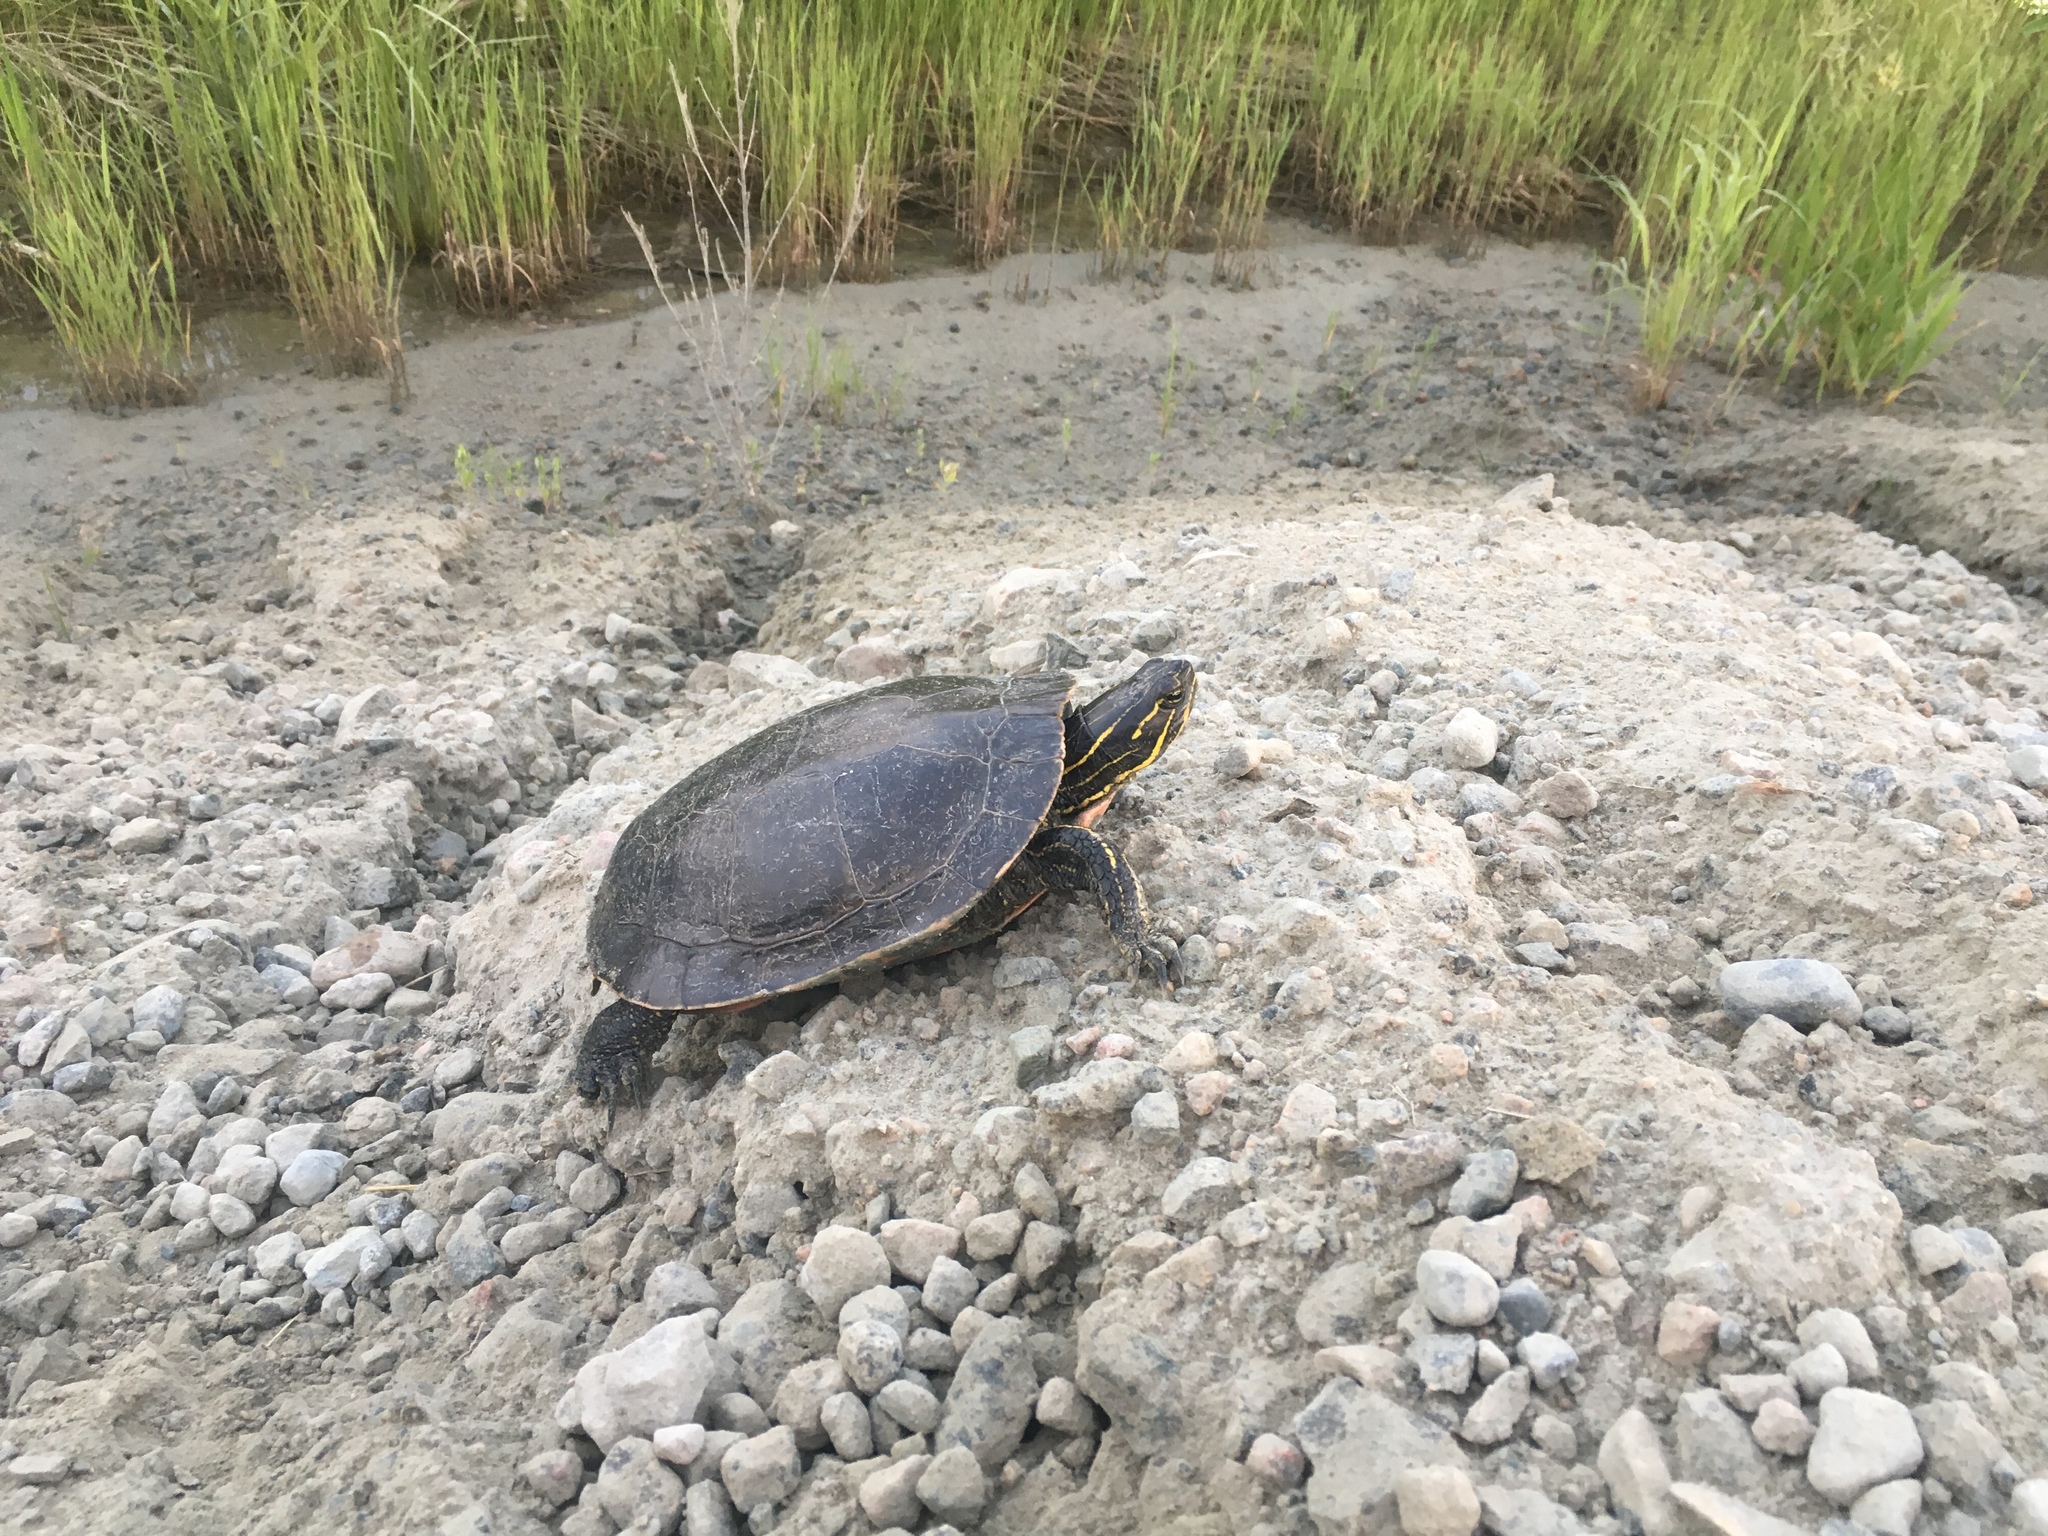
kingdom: Animalia
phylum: Chordata
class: Testudines
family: Emydidae
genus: Chrysemys
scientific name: Chrysemys picta
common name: Painted turtle
